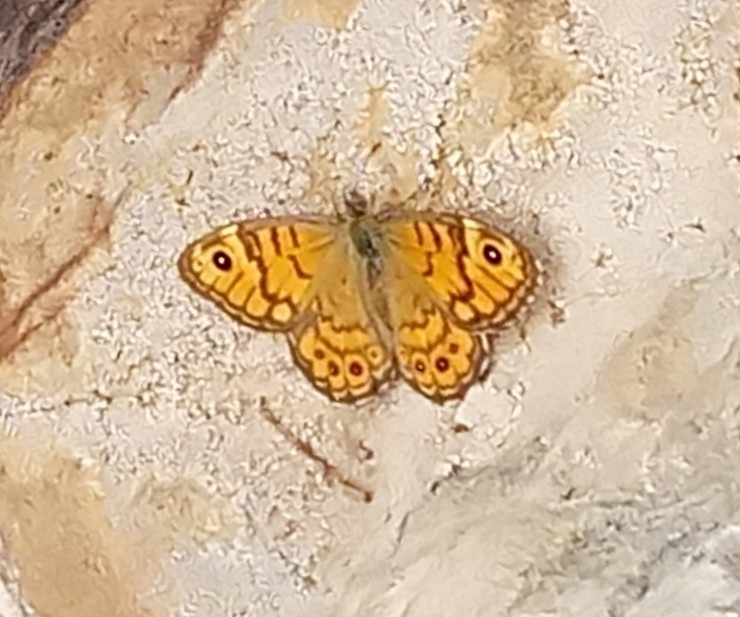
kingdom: Animalia
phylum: Arthropoda
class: Insecta
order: Lepidoptera
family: Nymphalidae
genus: Pararge
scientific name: Pararge Lasiommata megera
